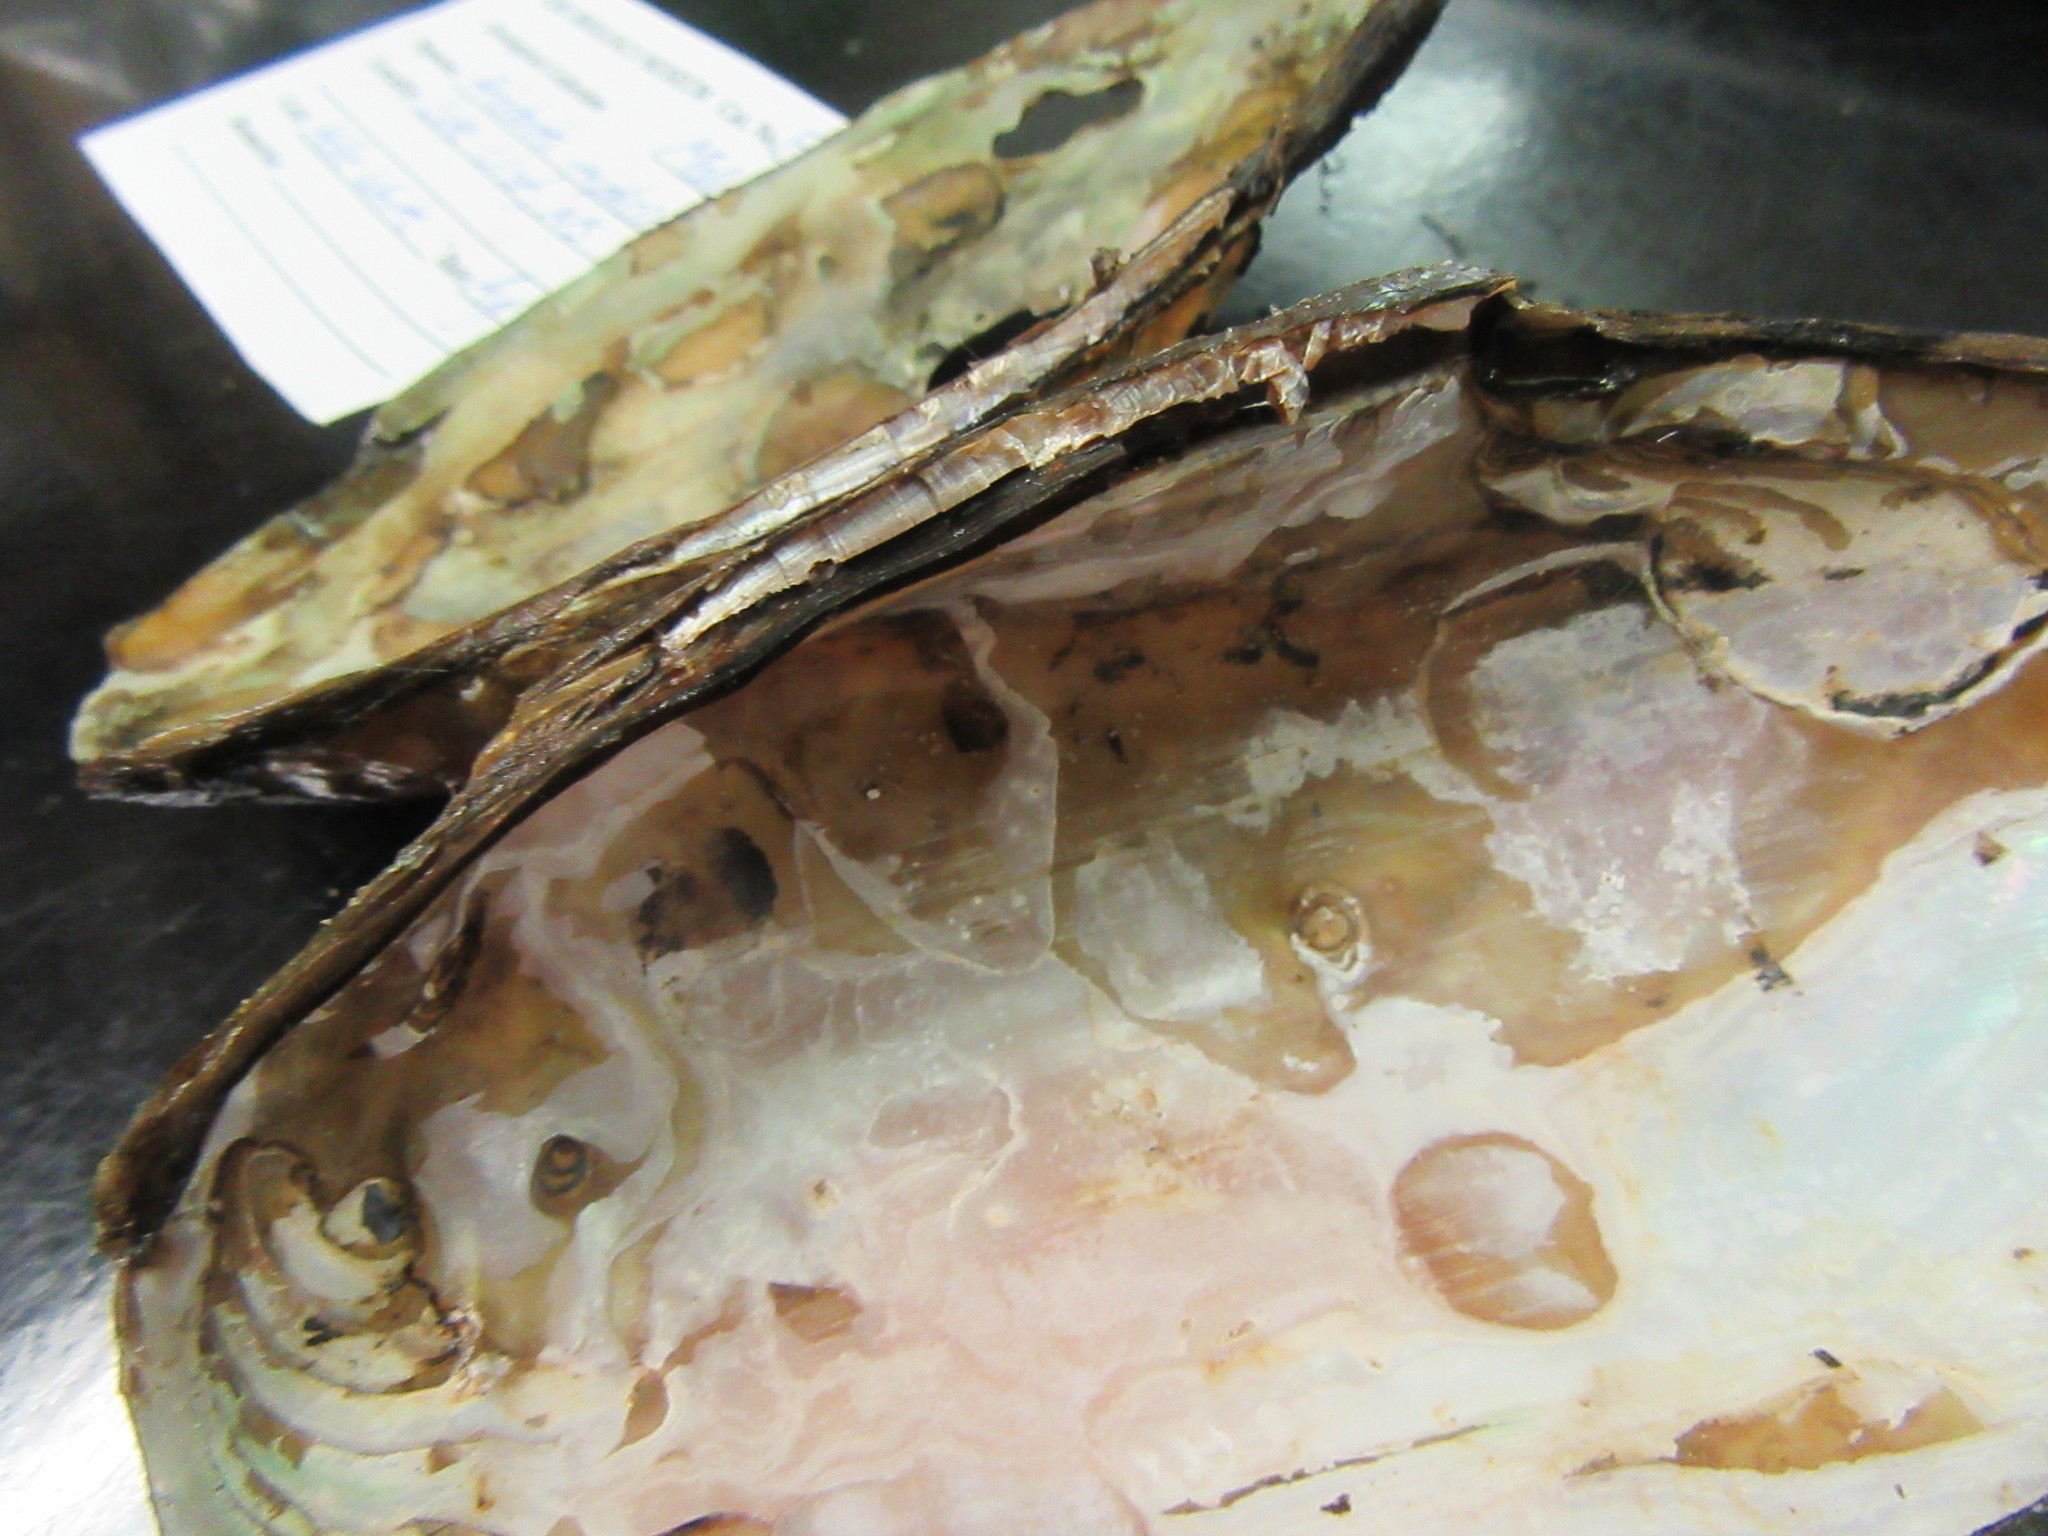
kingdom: Animalia
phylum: Mollusca
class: Bivalvia
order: Unionida
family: Unionidae
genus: Utterbackiana
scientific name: Utterbackiana implicata
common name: Alewife floater
